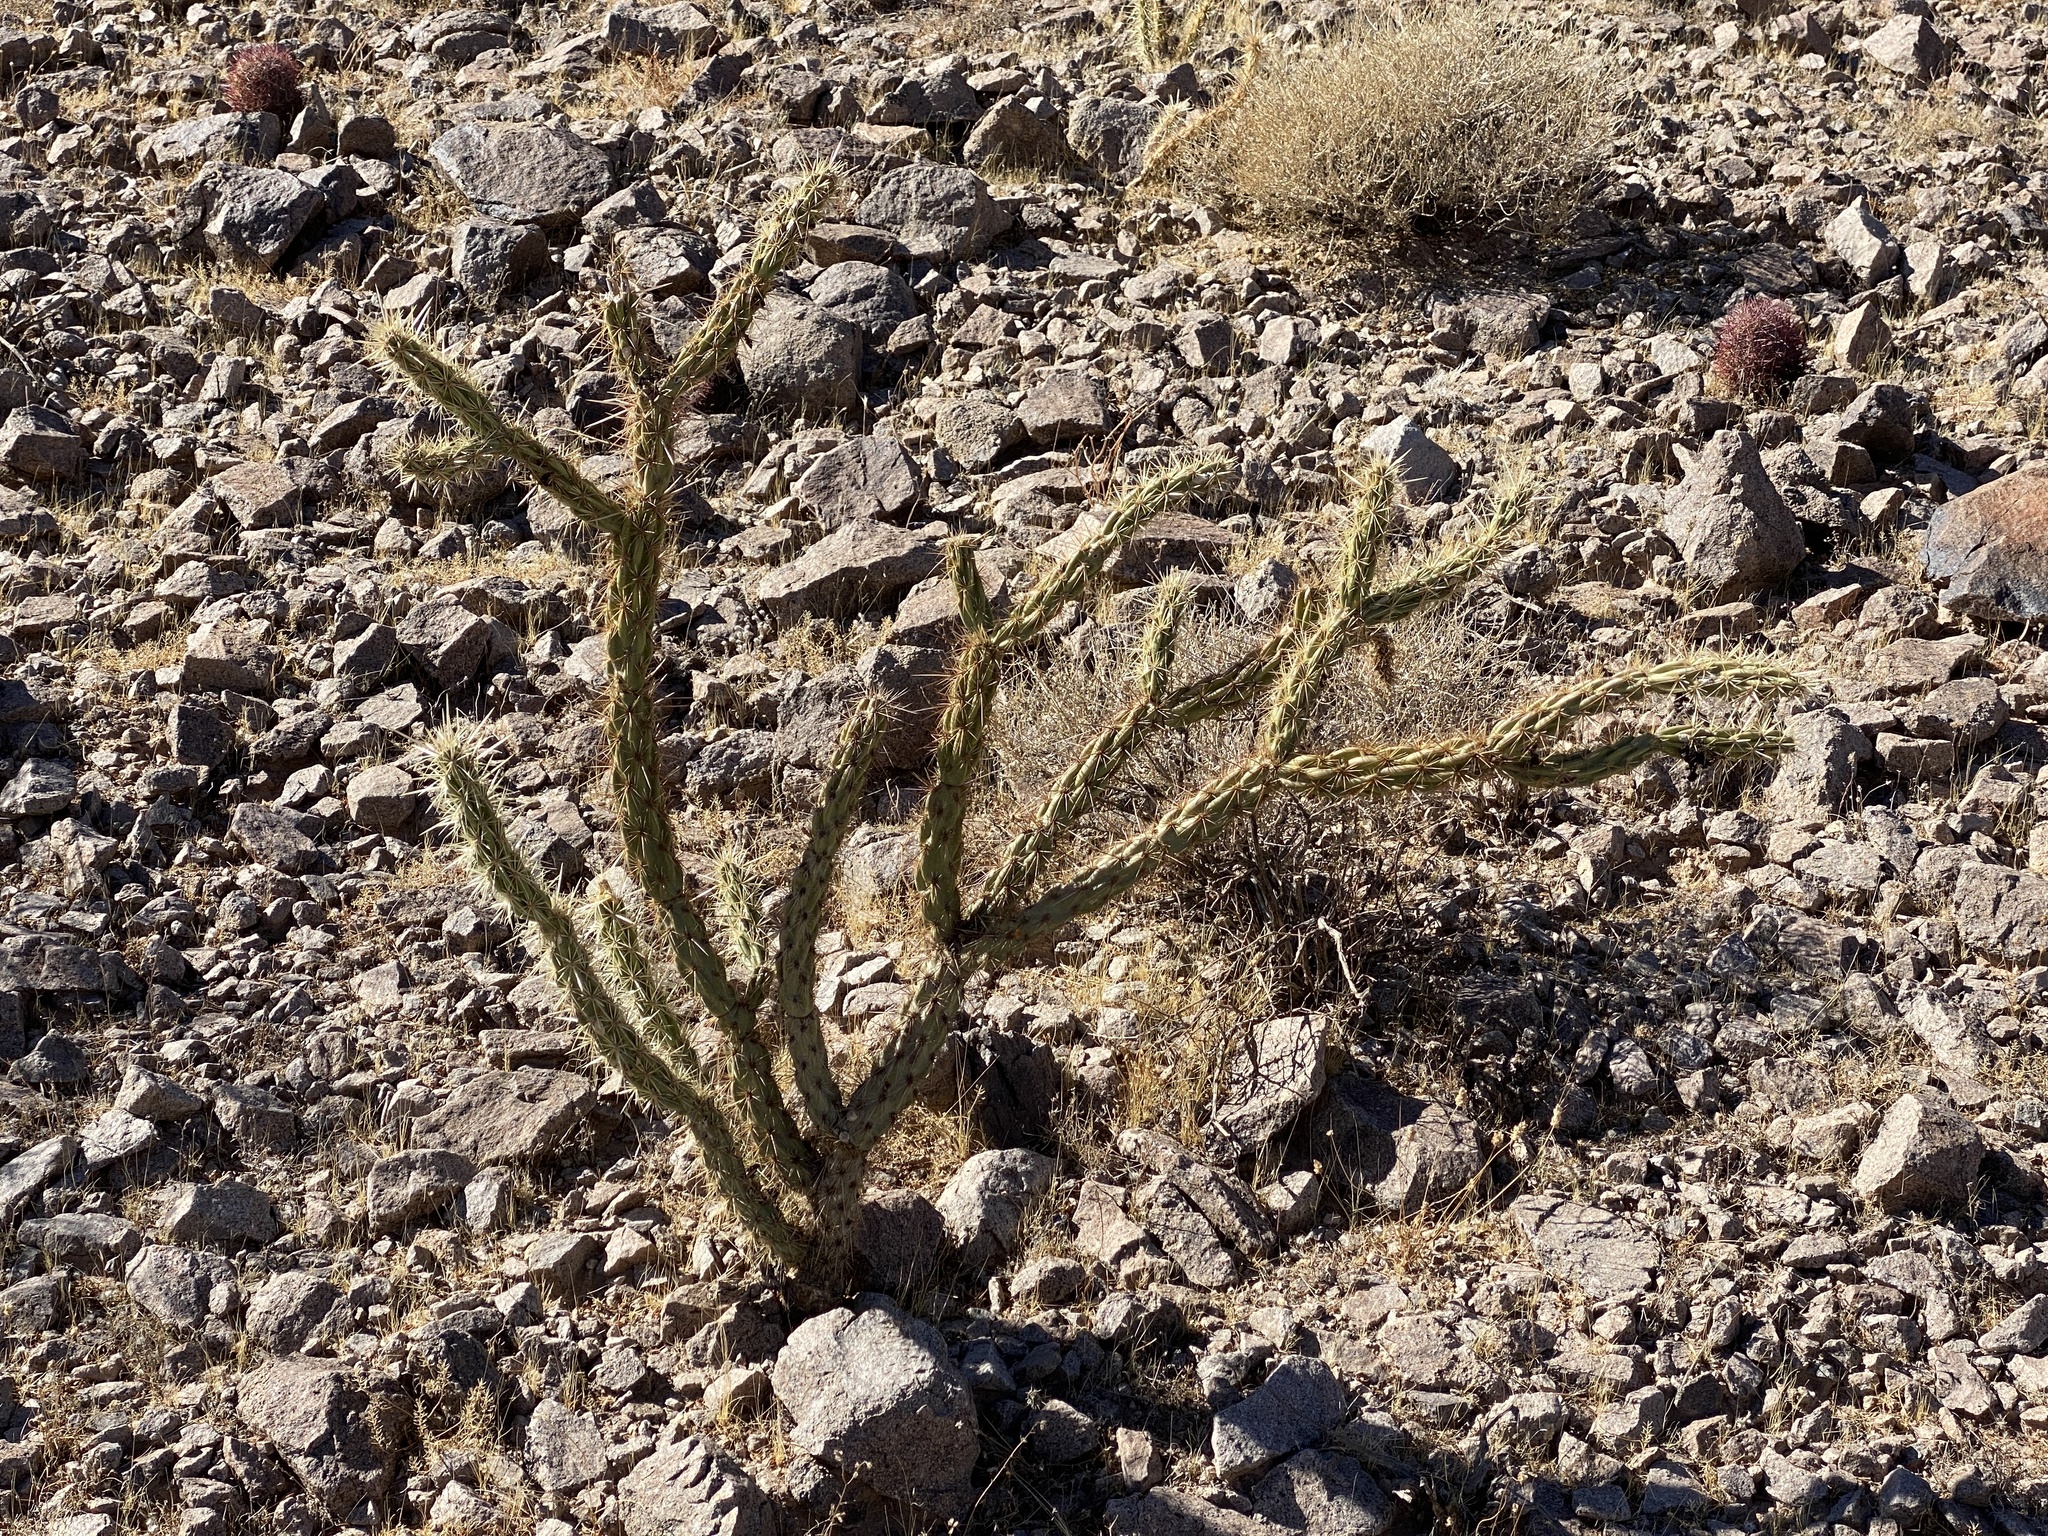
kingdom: Plantae
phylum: Tracheophyta
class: Magnoliopsida
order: Caryophyllales
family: Cactaceae
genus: Cylindropuntia
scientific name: Cylindropuntia acanthocarpa
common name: Buckhorn cholla
